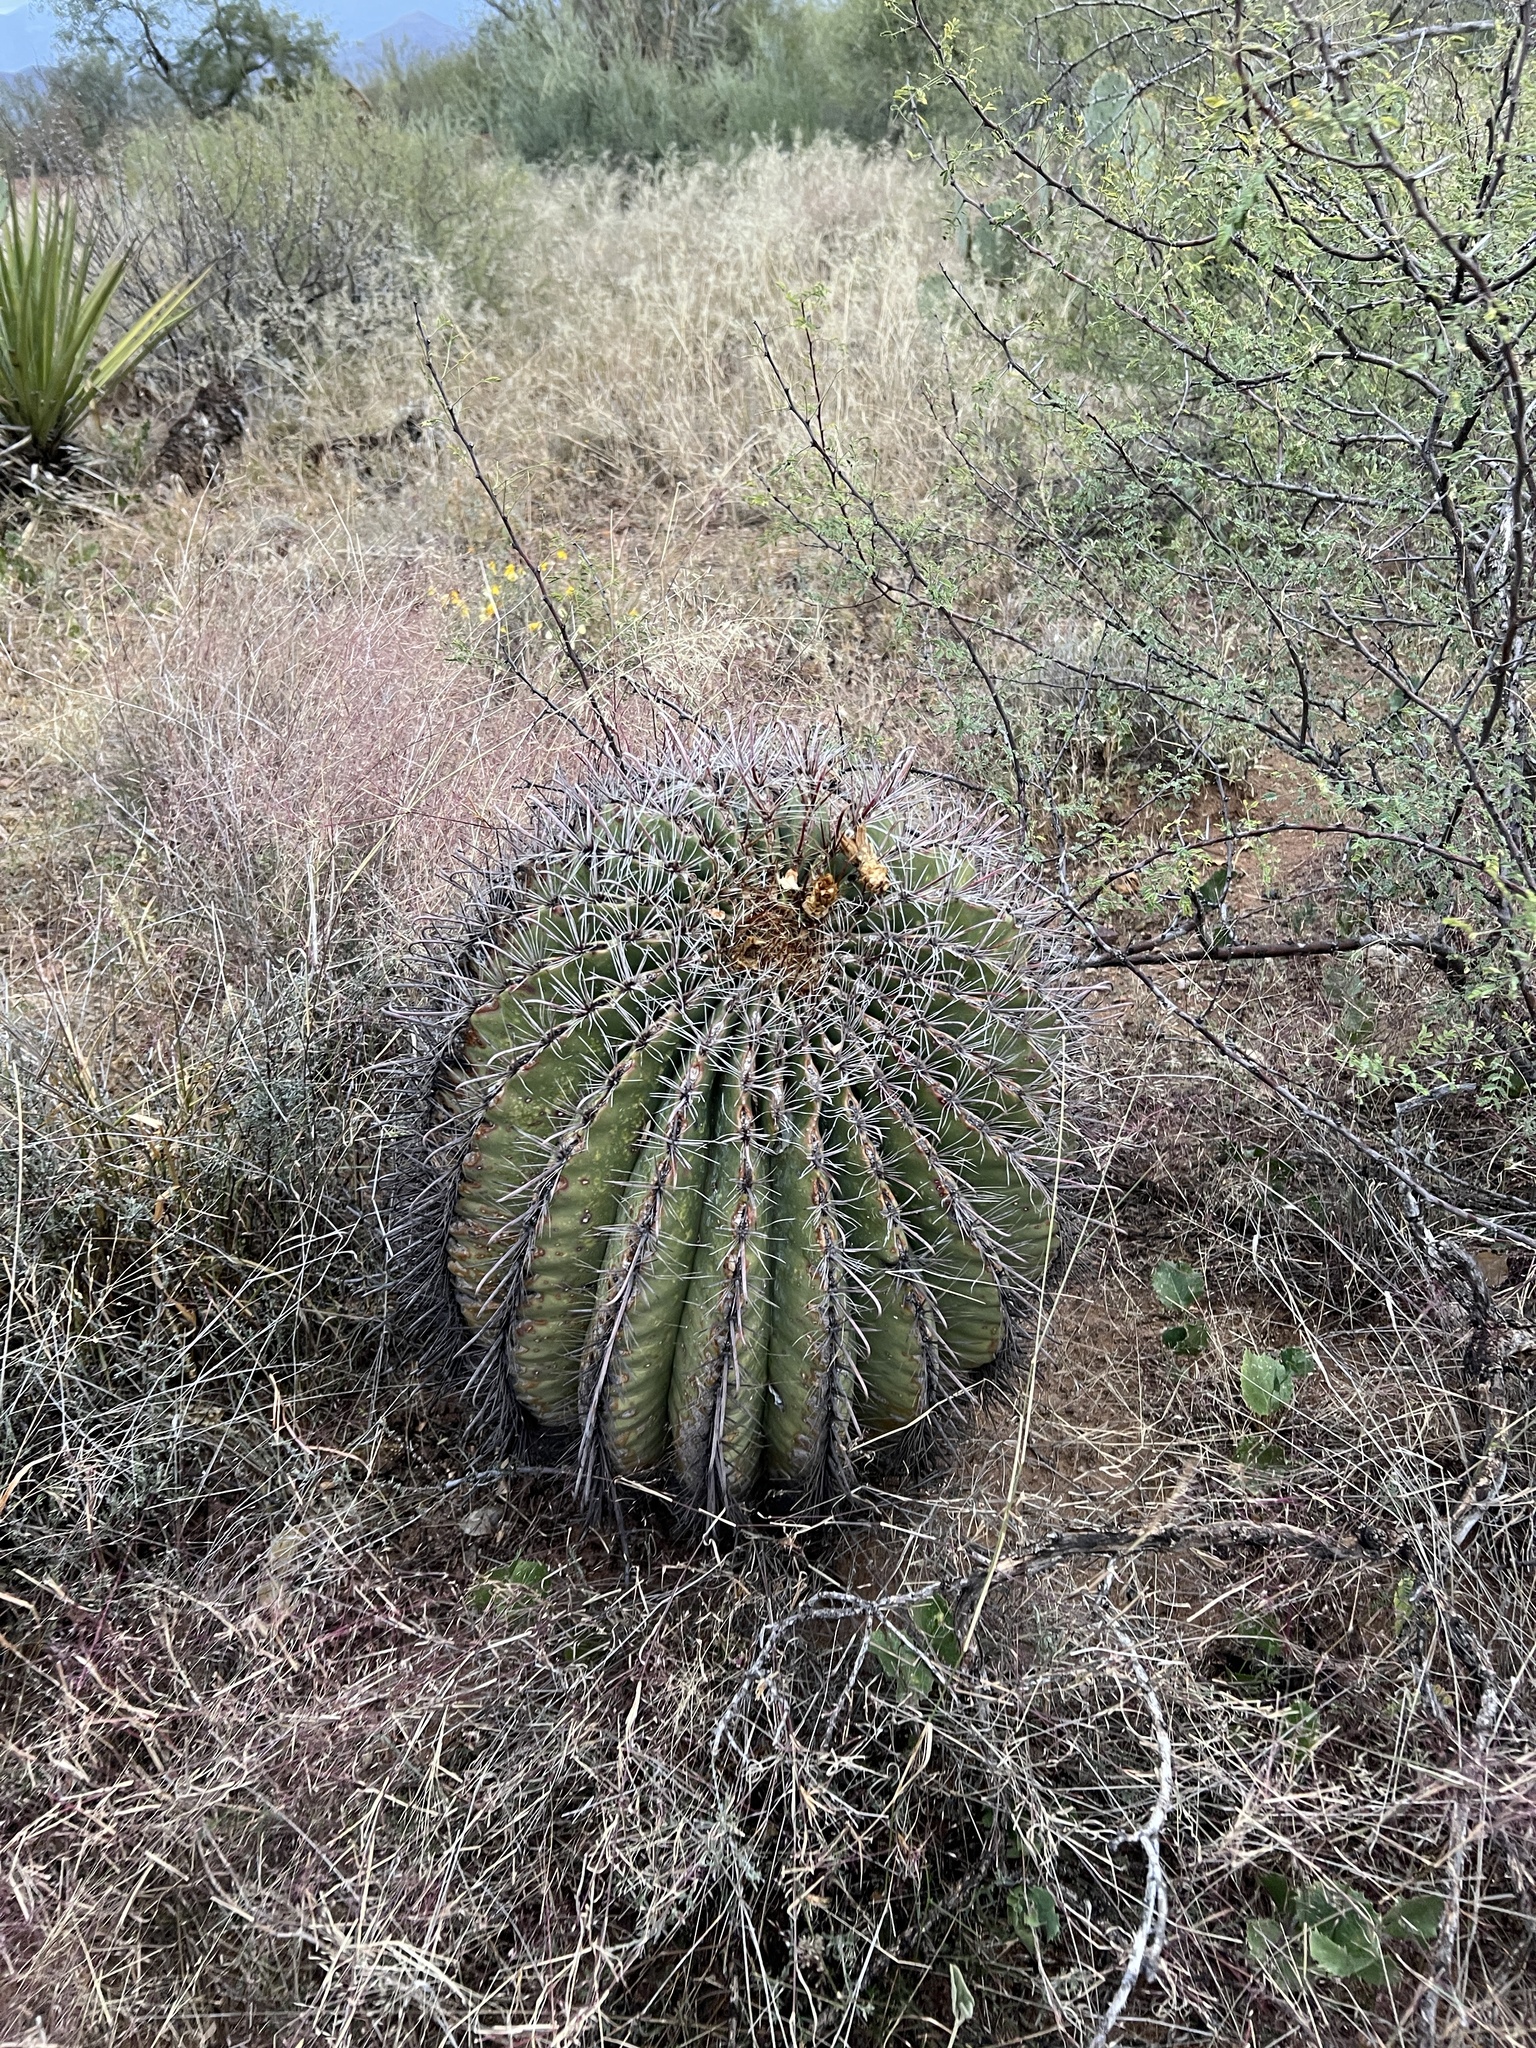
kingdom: Plantae
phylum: Tracheophyta
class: Magnoliopsida
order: Caryophyllales
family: Cactaceae
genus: Ferocactus
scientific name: Ferocactus wislizeni
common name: Candy barrel cactus
